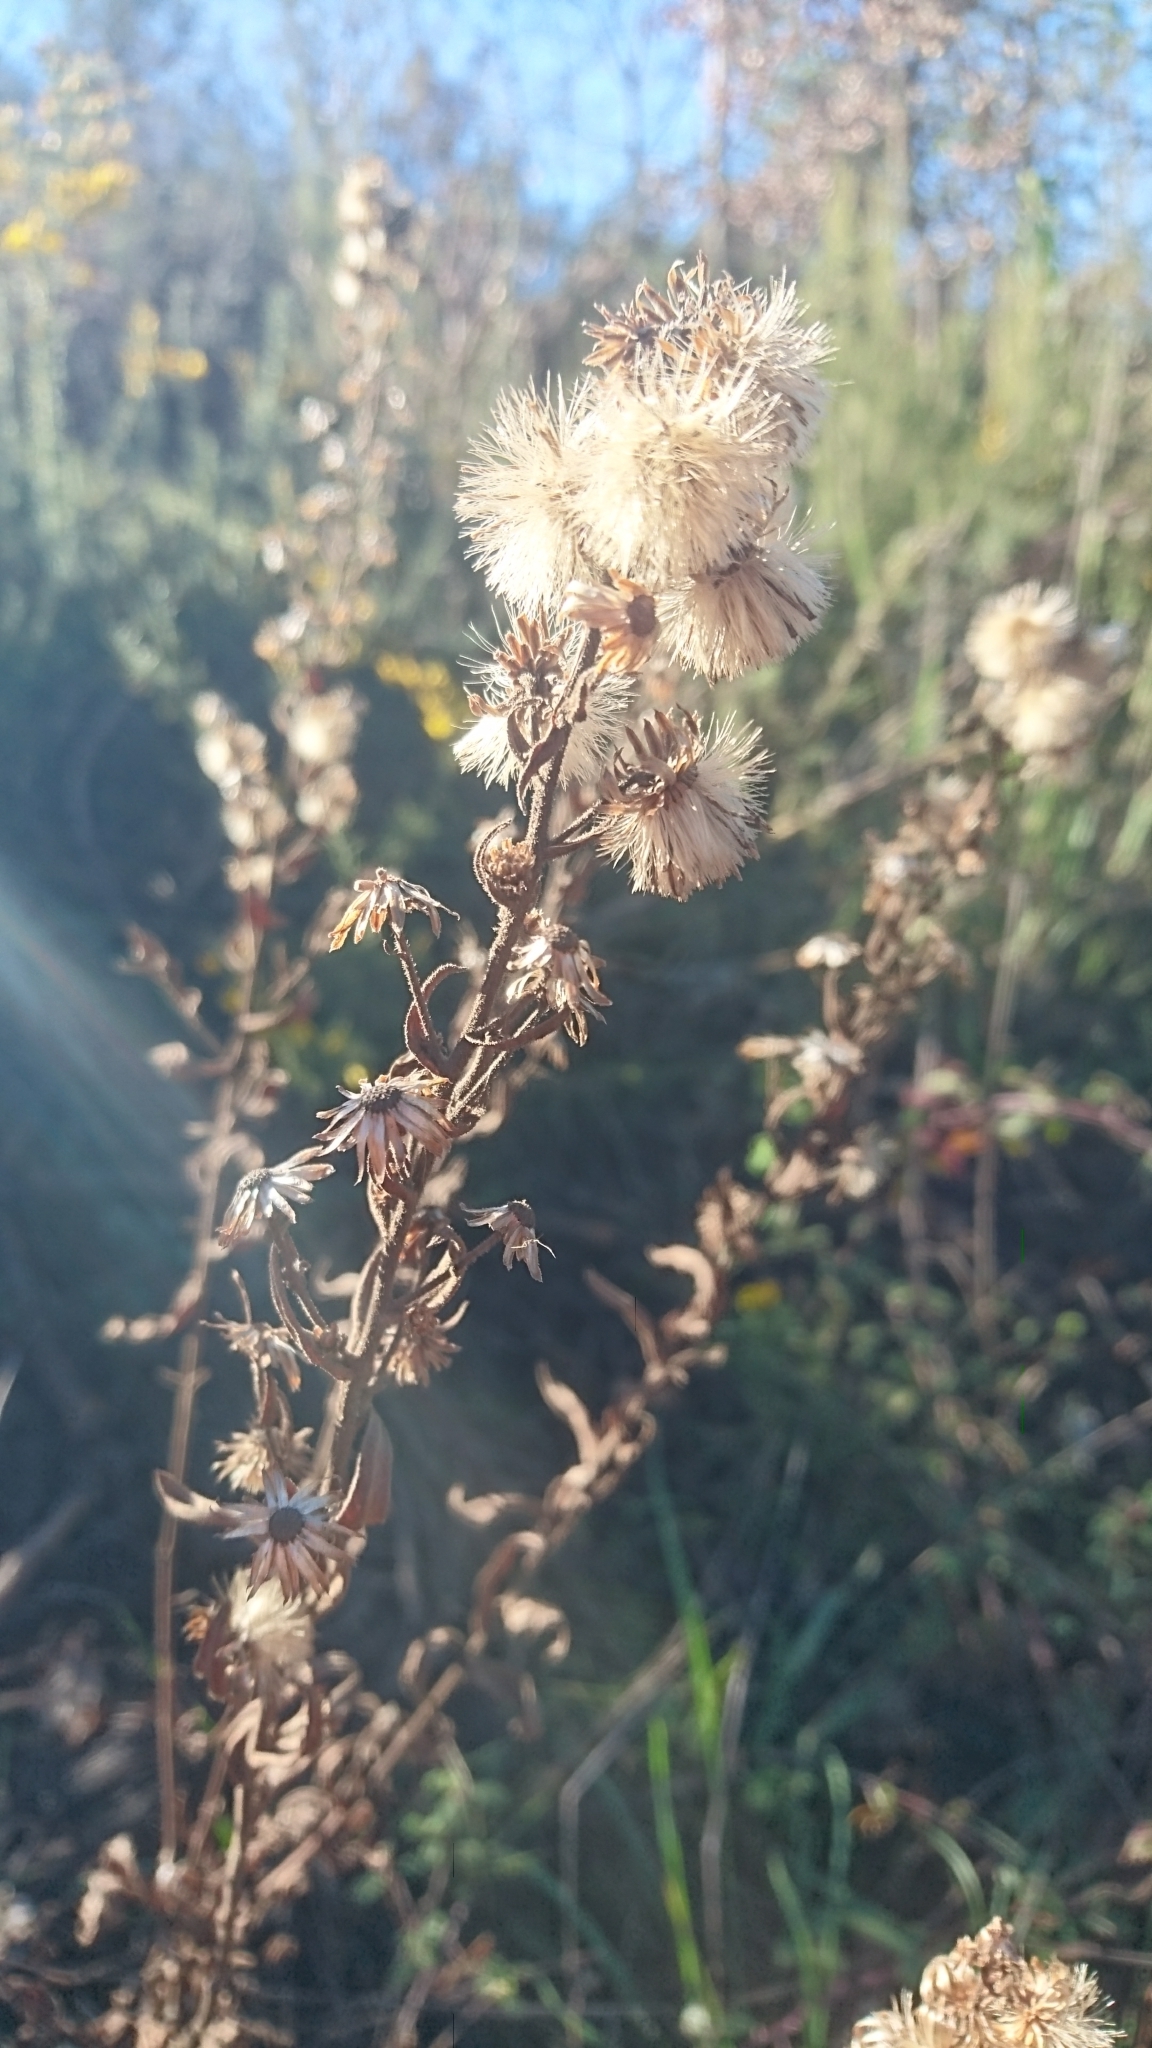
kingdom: Plantae
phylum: Tracheophyta
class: Magnoliopsida
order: Asterales
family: Asteraceae
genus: Dittrichia
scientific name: Dittrichia viscosa
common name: Woody fleabane
